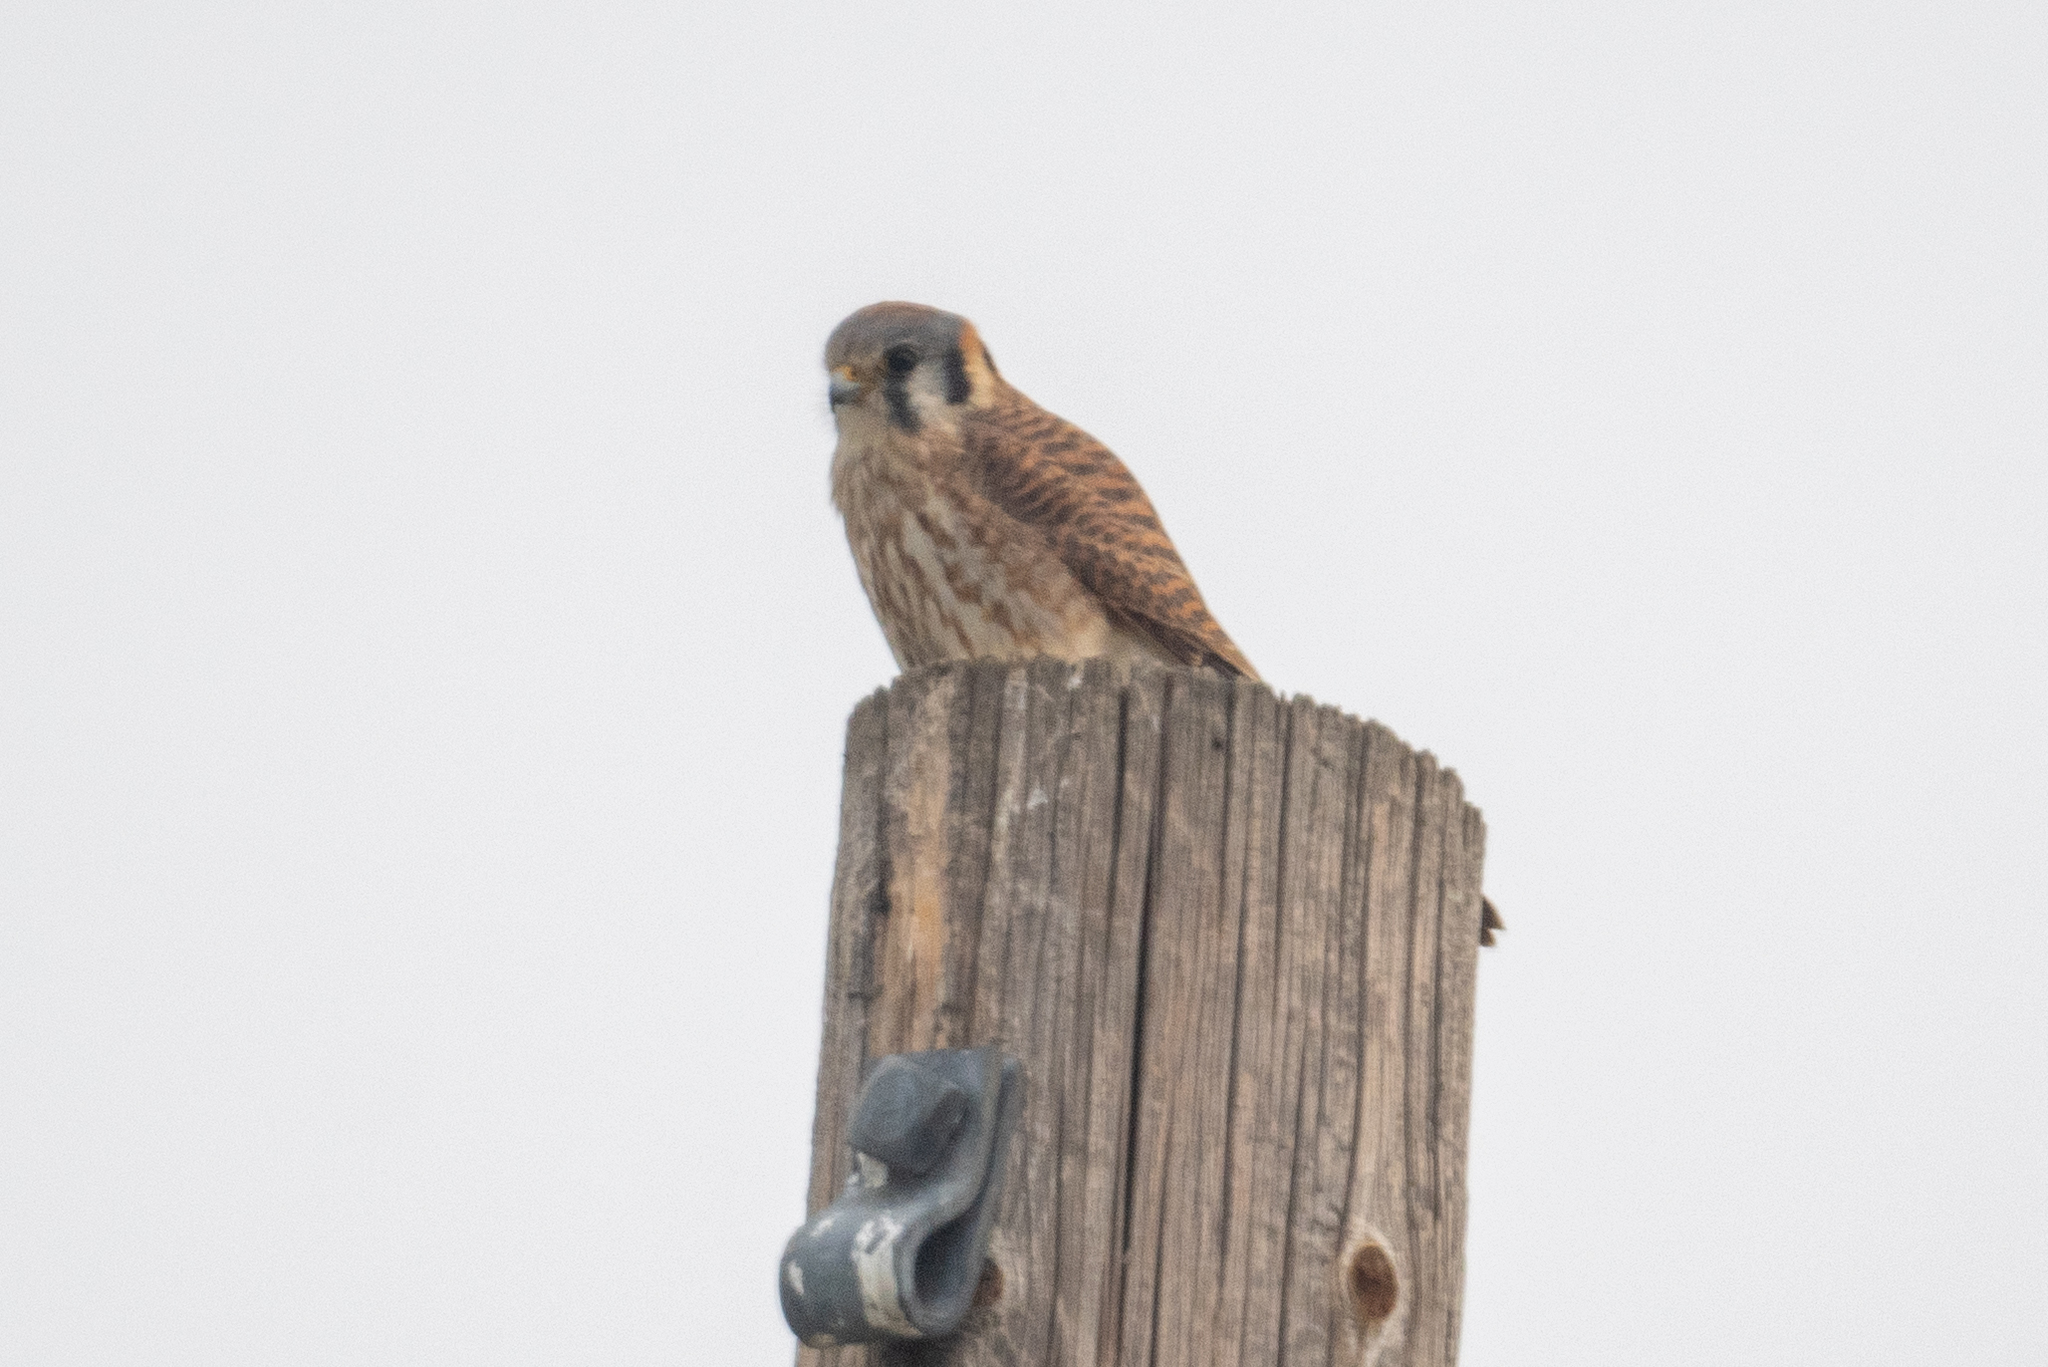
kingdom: Animalia
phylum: Chordata
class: Aves
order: Falconiformes
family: Falconidae
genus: Falco
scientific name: Falco sparverius
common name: American kestrel
